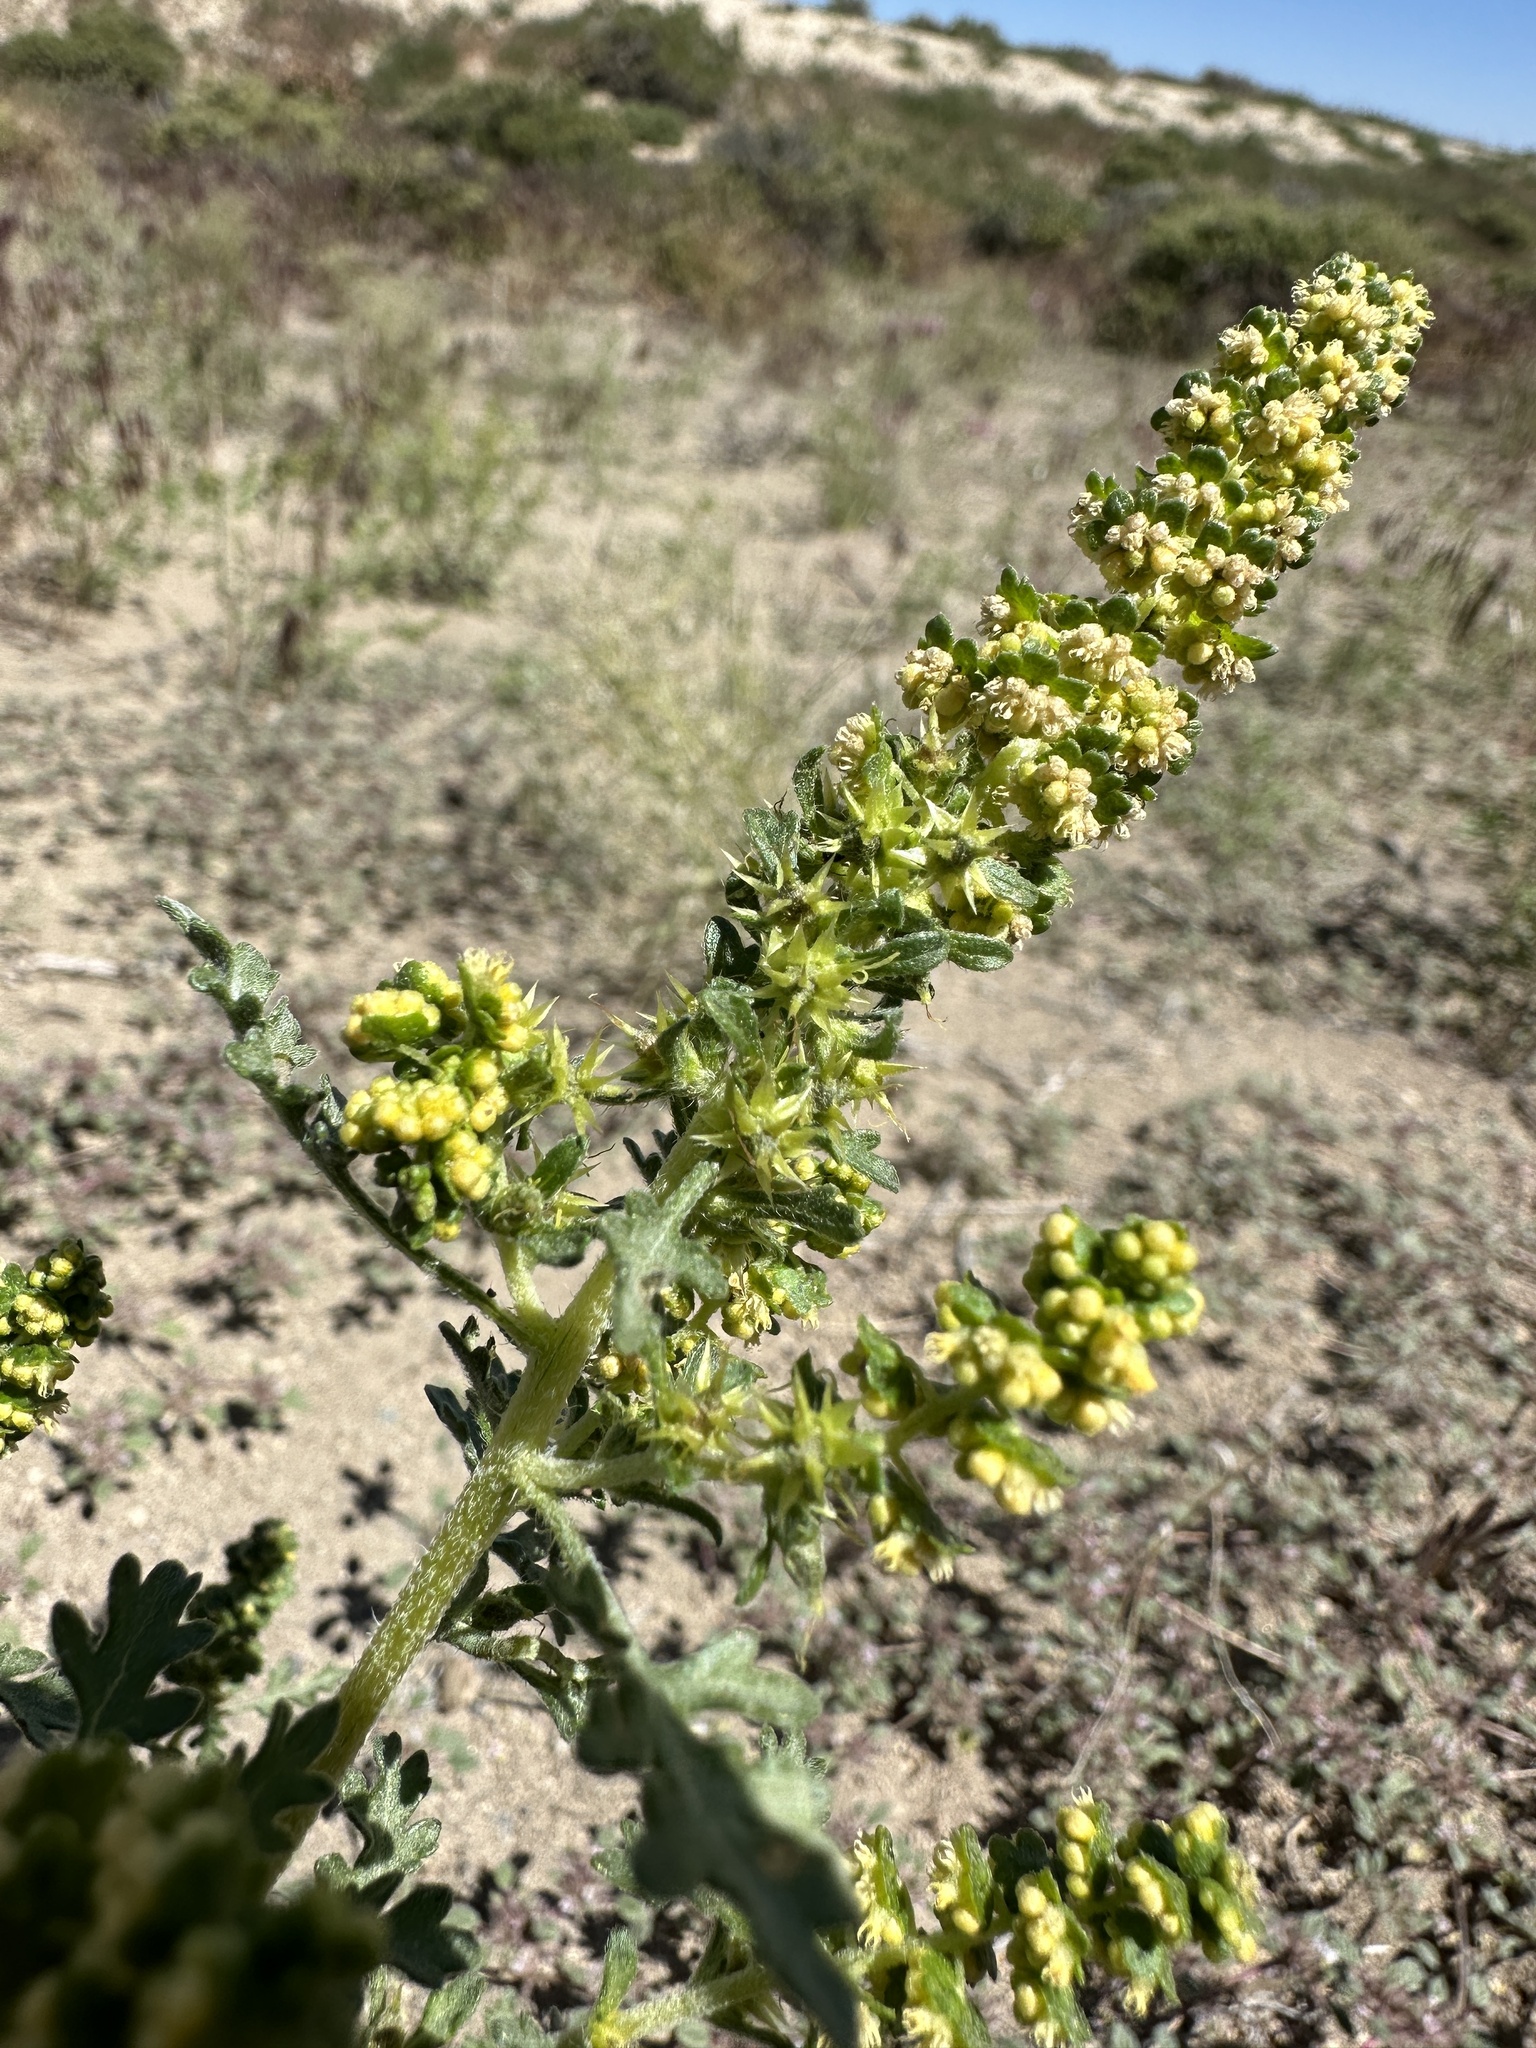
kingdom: Plantae
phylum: Tracheophyta
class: Magnoliopsida
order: Asterales
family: Asteraceae
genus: Ambrosia
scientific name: Ambrosia acanthicarpa
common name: Hooker's bur ragweed
